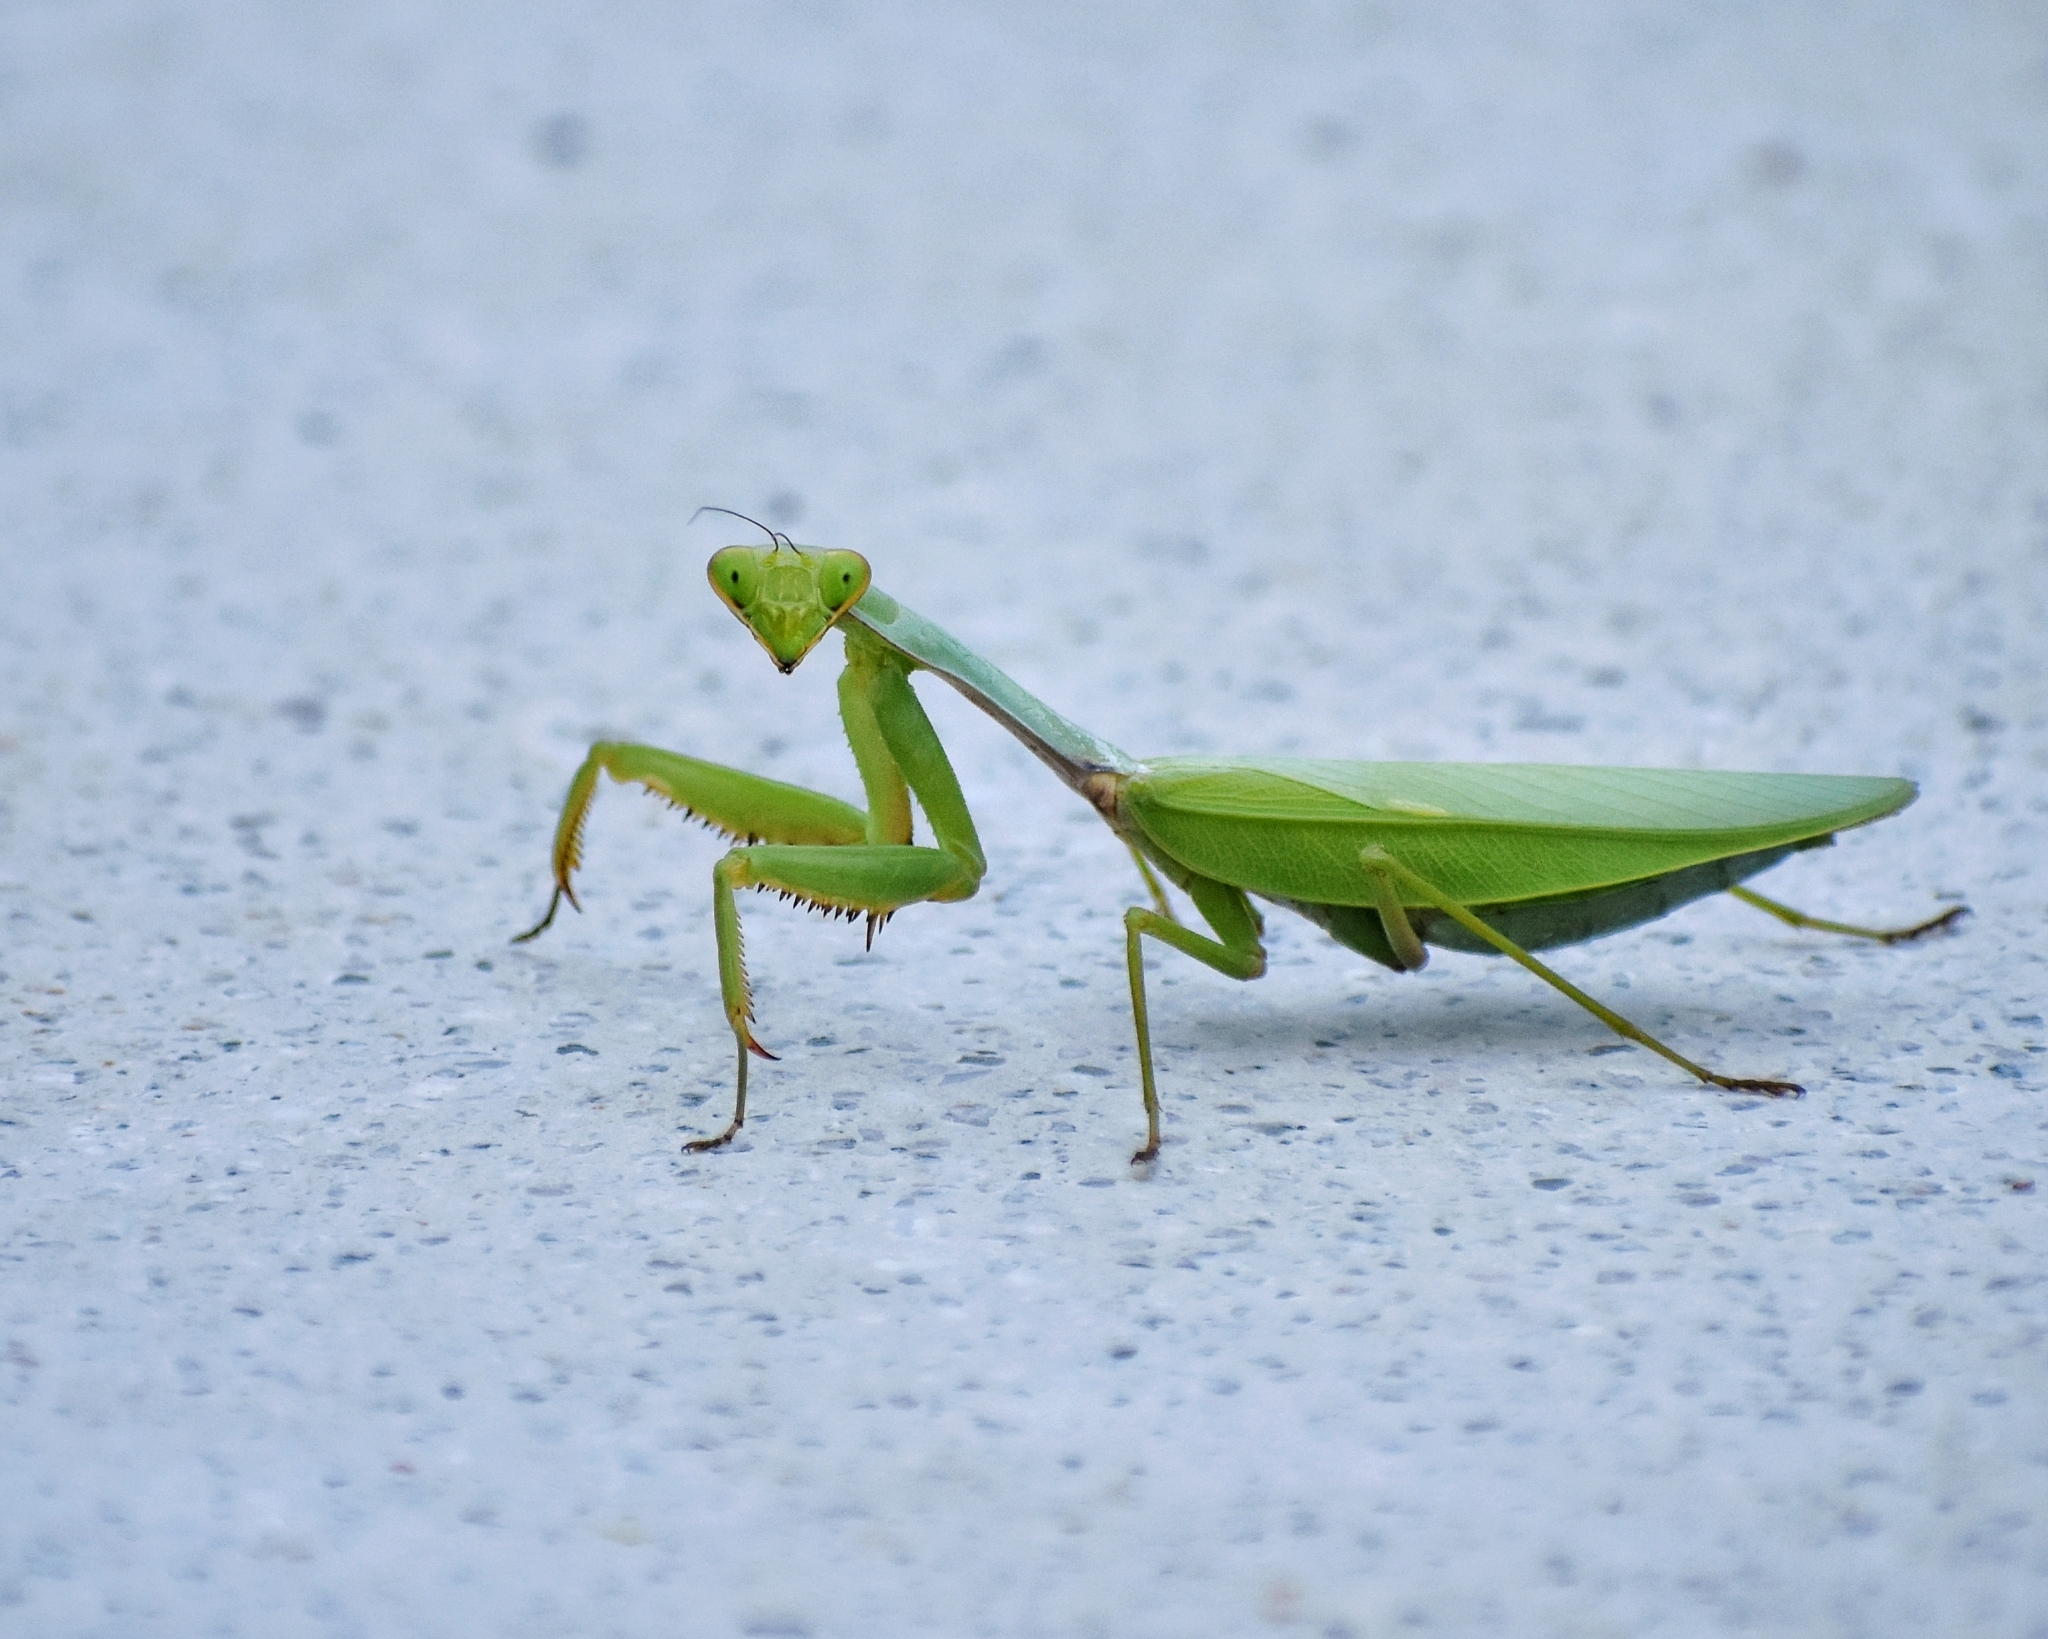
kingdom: Animalia
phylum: Arthropoda
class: Insecta
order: Mantodea
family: Mantidae
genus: Titanodula
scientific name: Titanodula formosana
